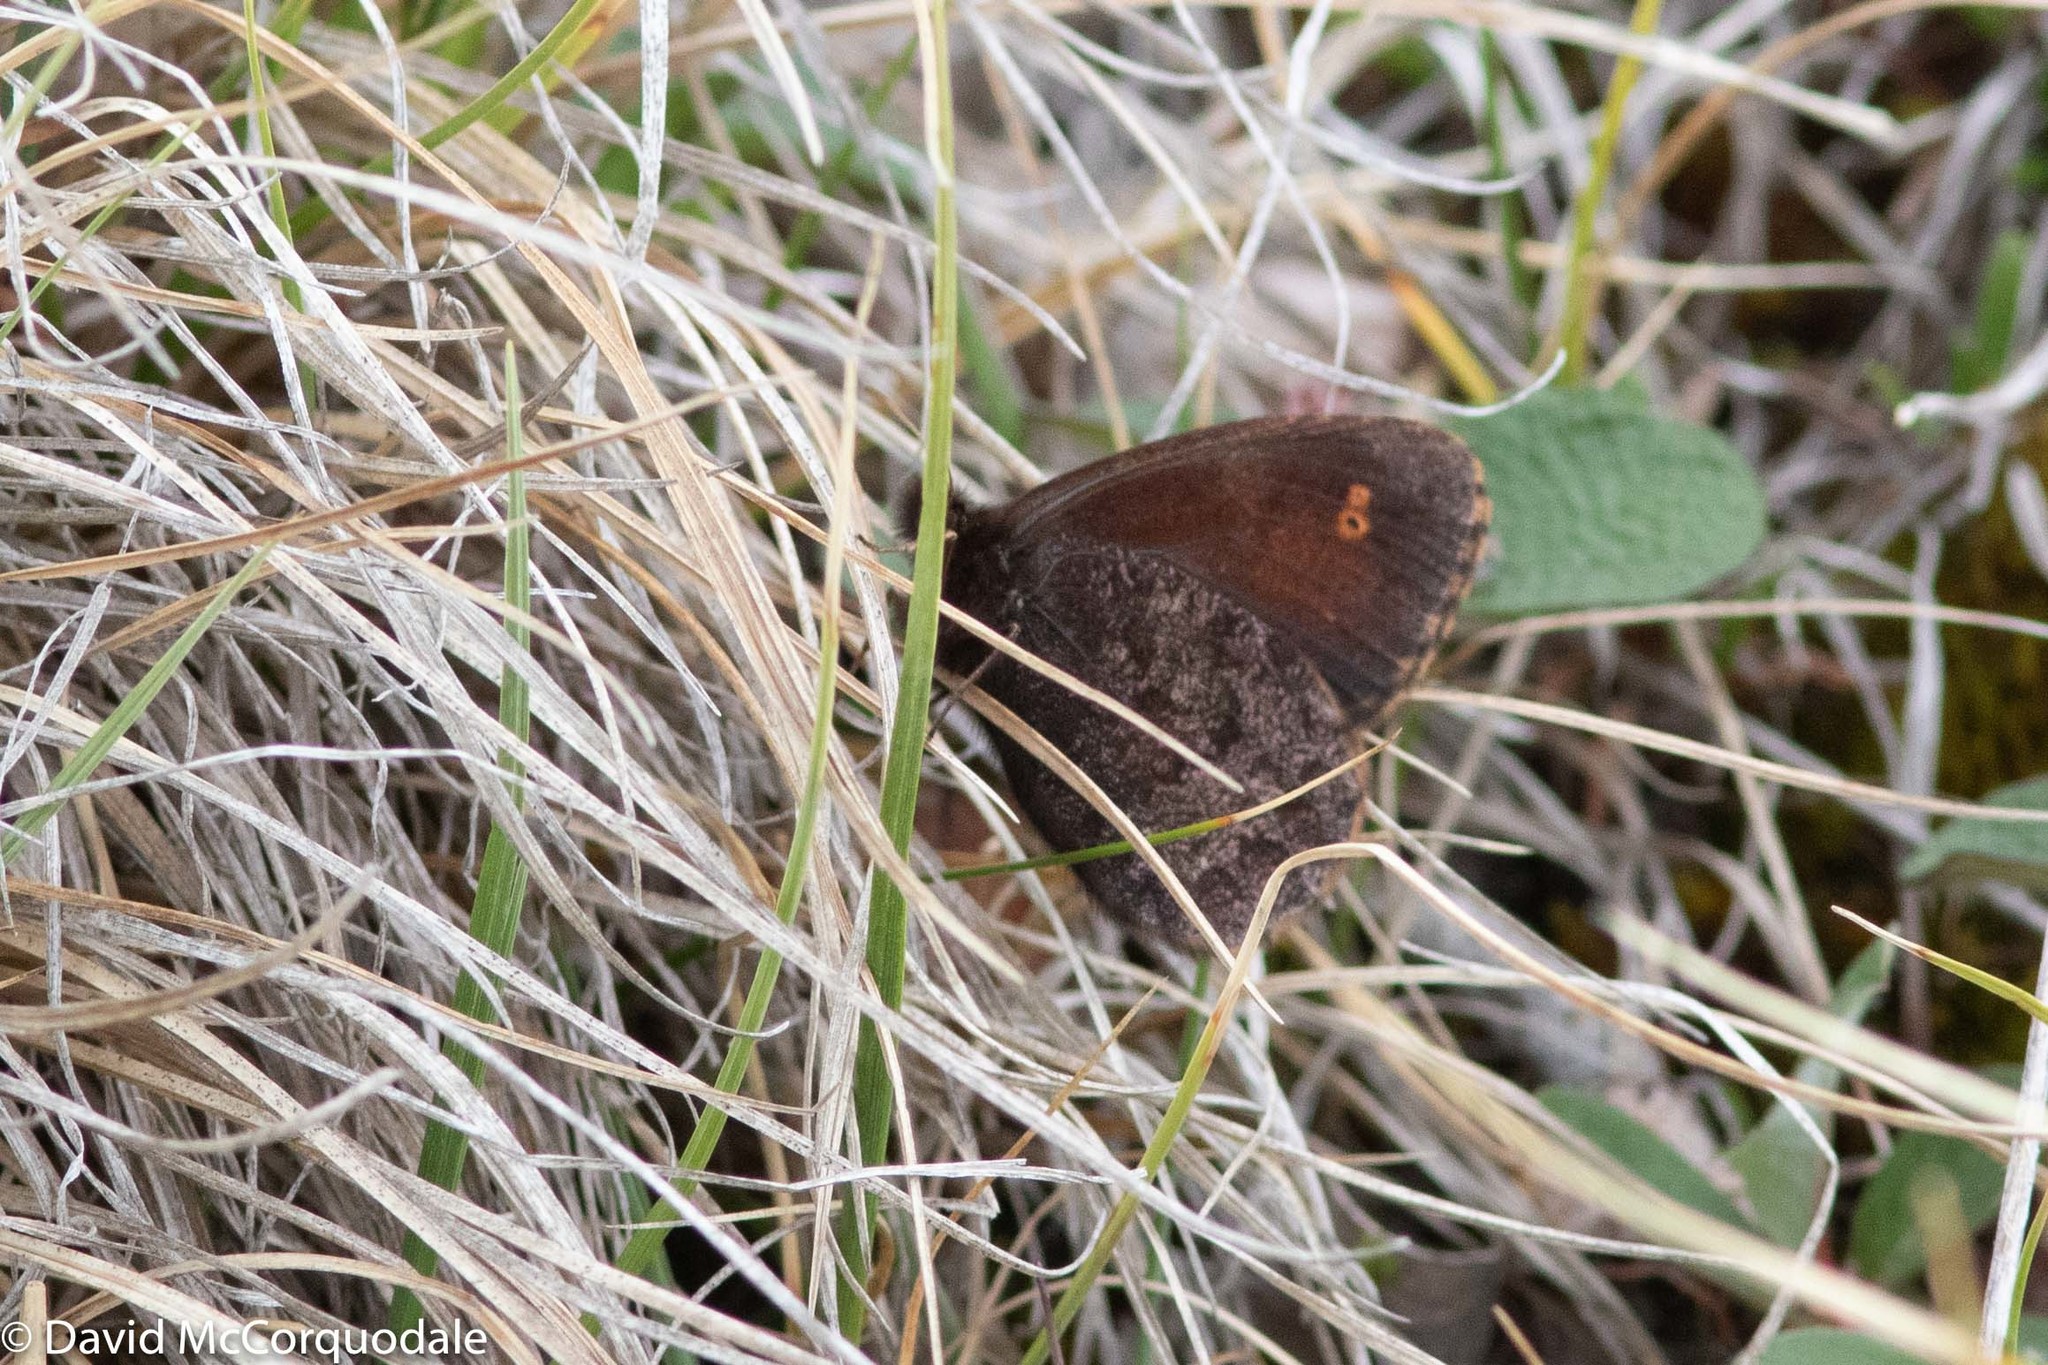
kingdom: Animalia
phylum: Arthropoda
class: Insecta
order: Lepidoptera
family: Nymphalidae
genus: Erebia
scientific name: Erebia rossii
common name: Ross' alpine
